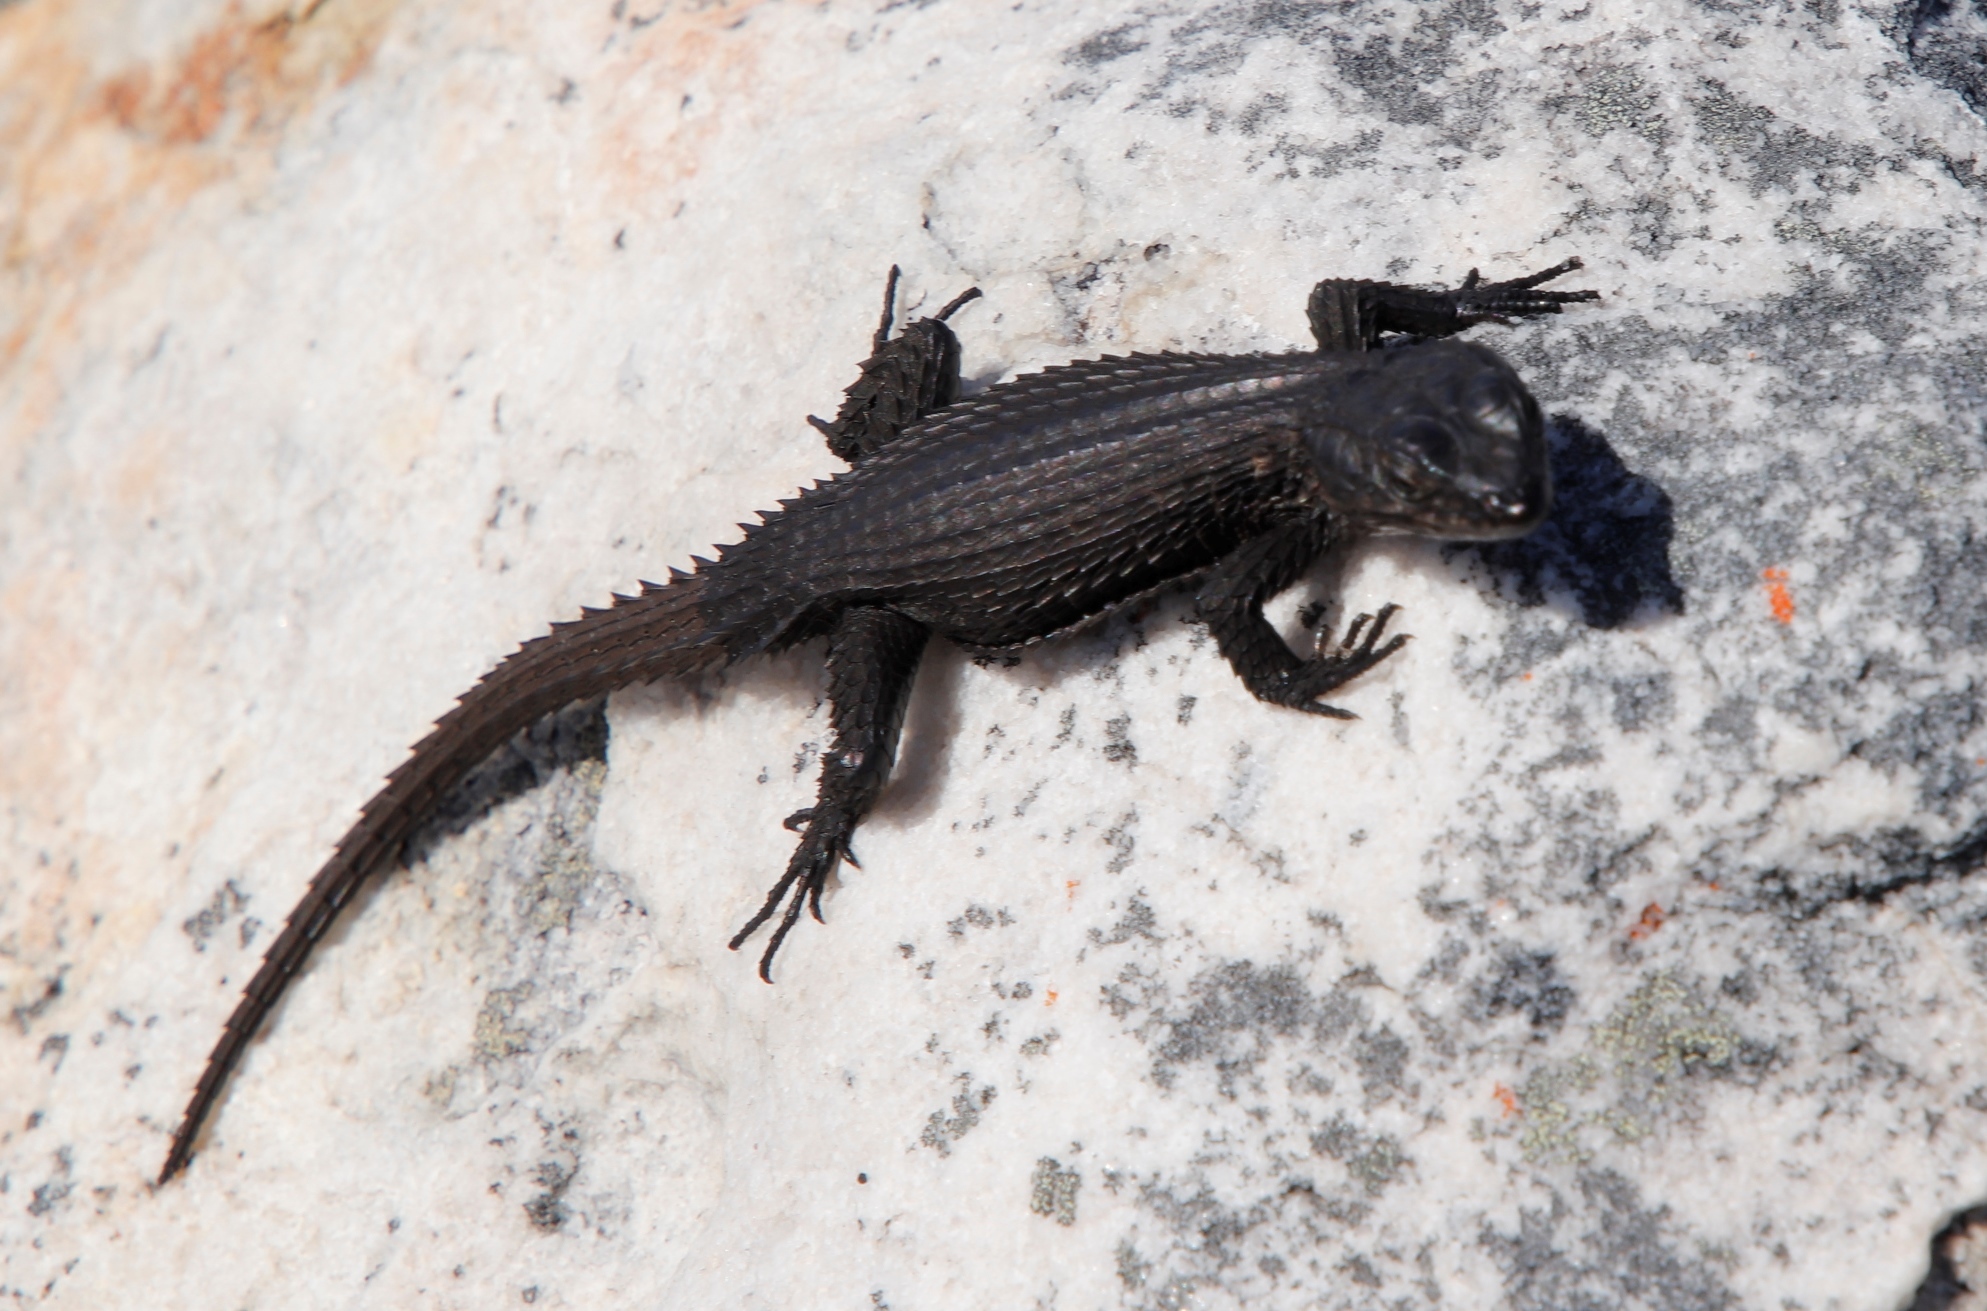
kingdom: Animalia
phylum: Chordata
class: Squamata
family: Cordylidae
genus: Cordylus
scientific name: Cordylus niger
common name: Black girdled lizard
